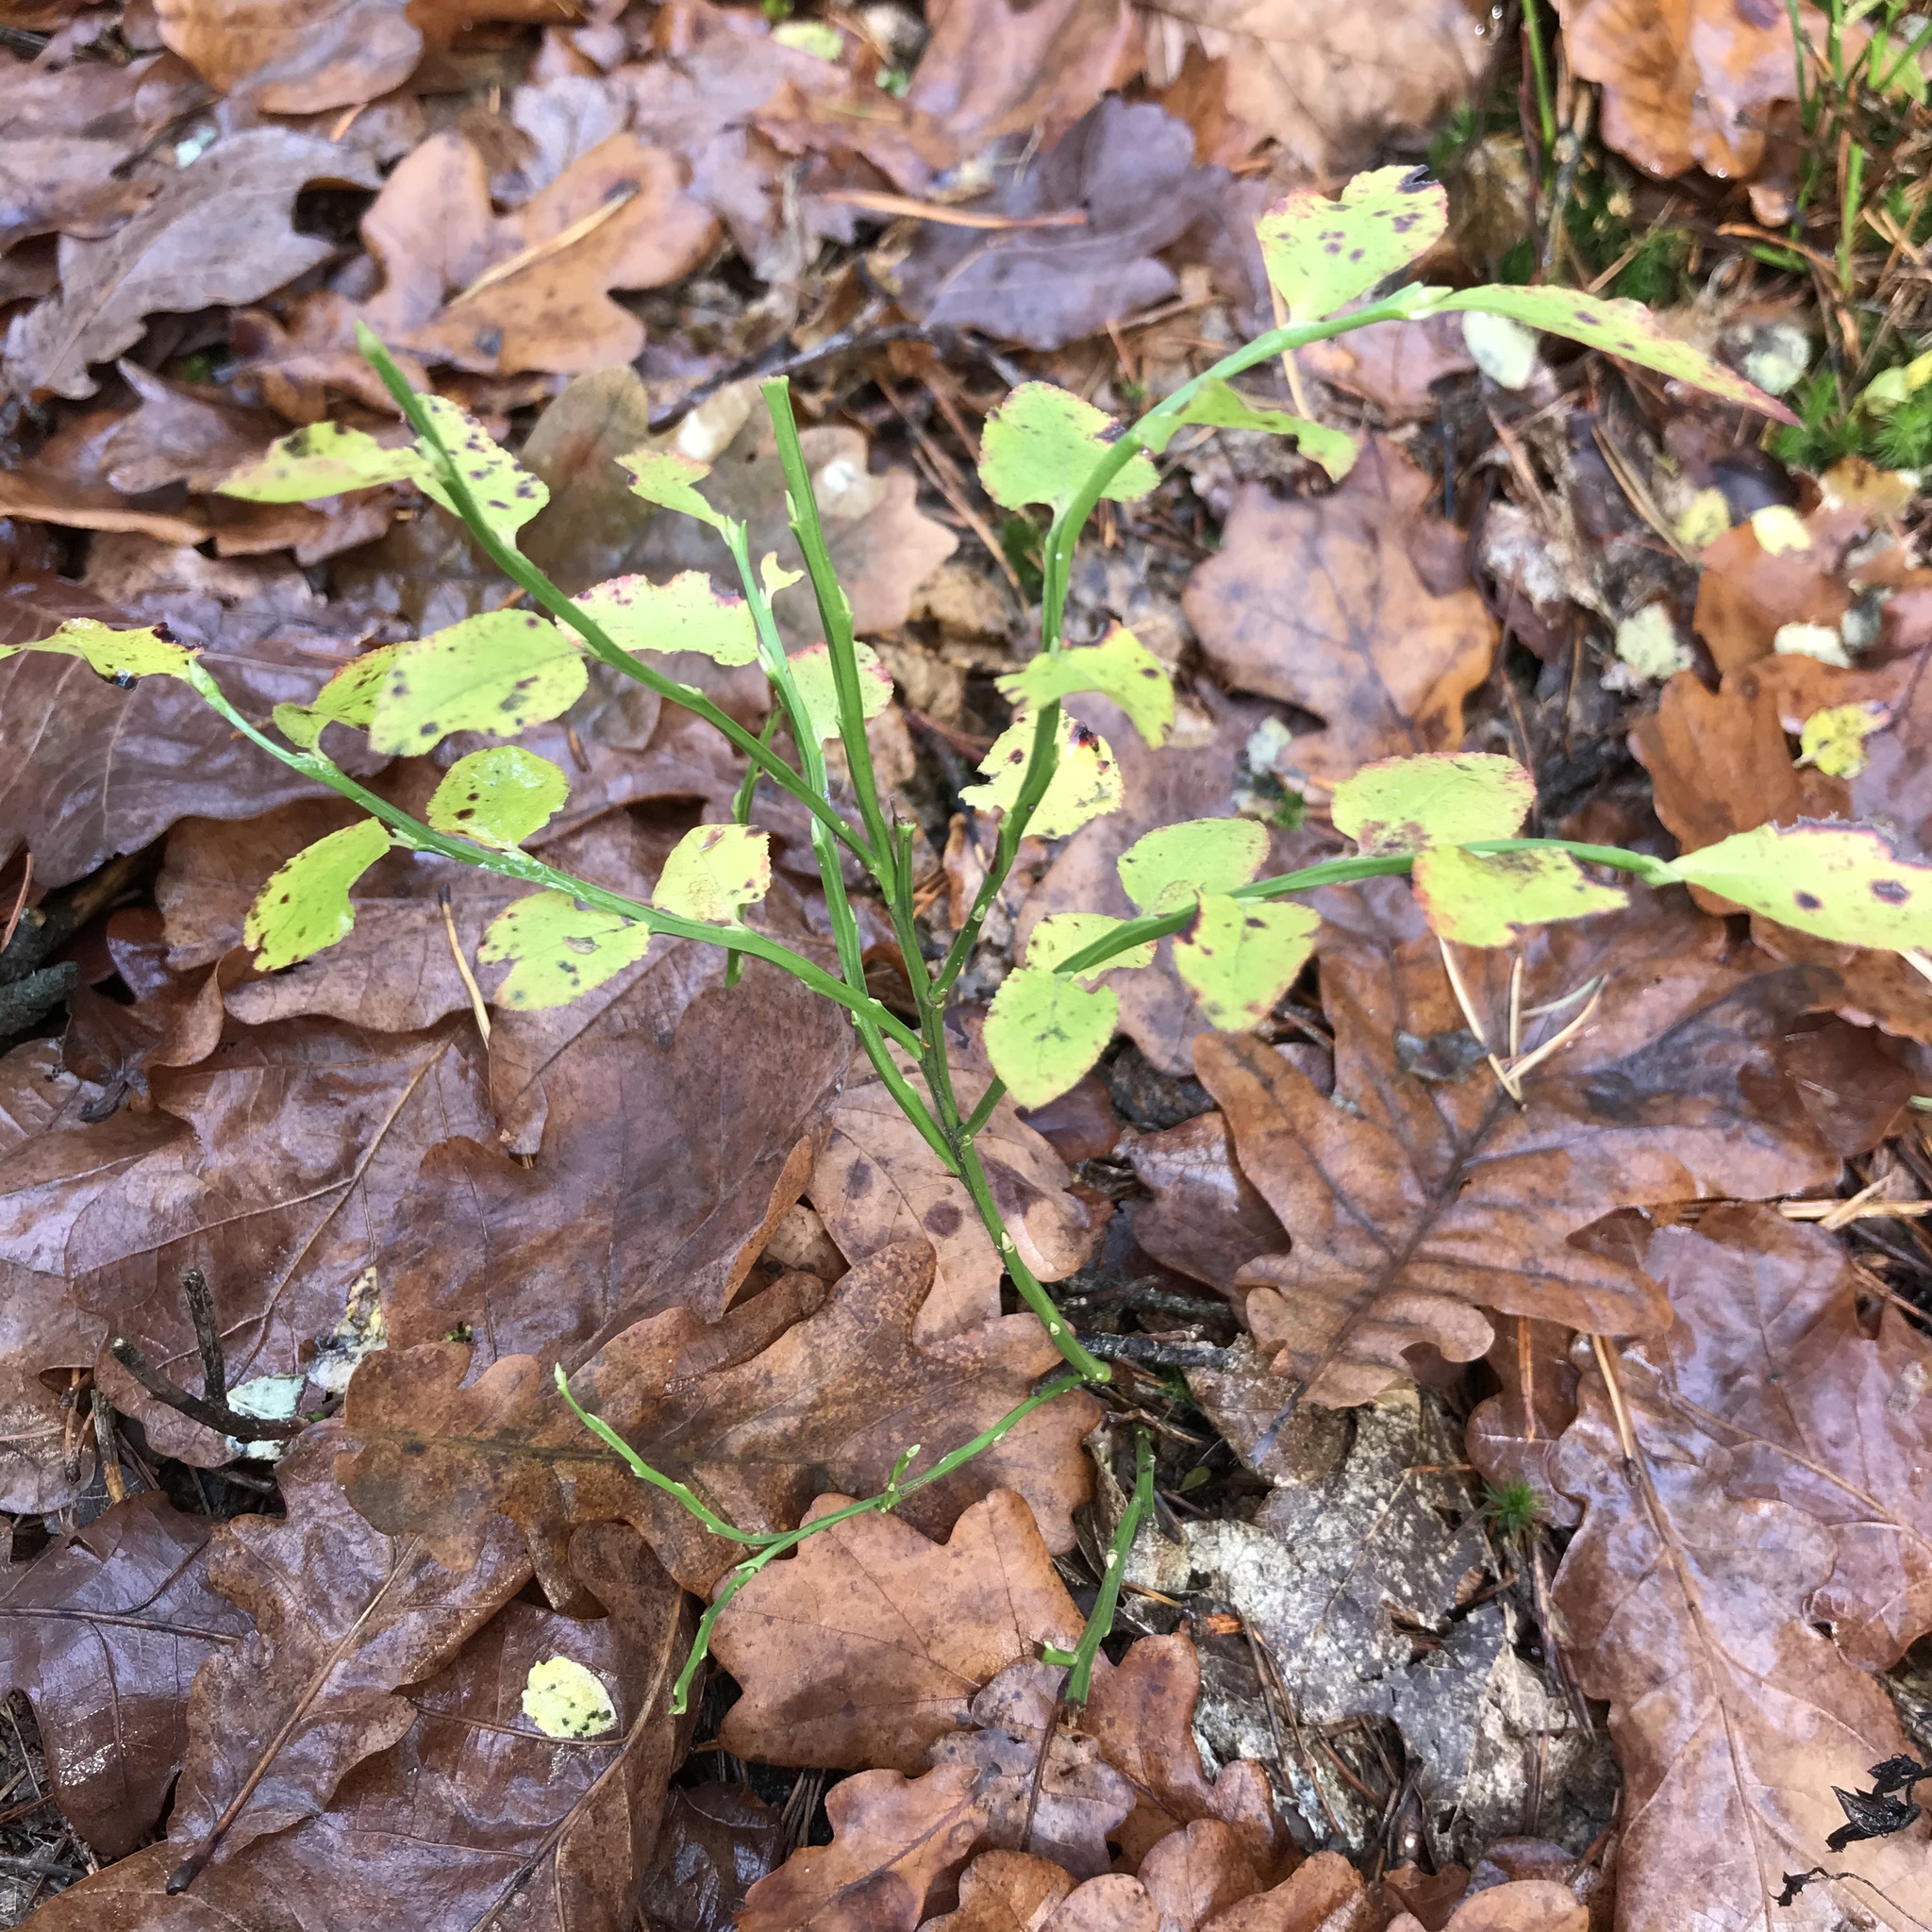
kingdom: Plantae
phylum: Tracheophyta
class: Magnoliopsida
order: Ericales
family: Ericaceae
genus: Vaccinium
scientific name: Vaccinium myrtillus
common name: Bilberry
